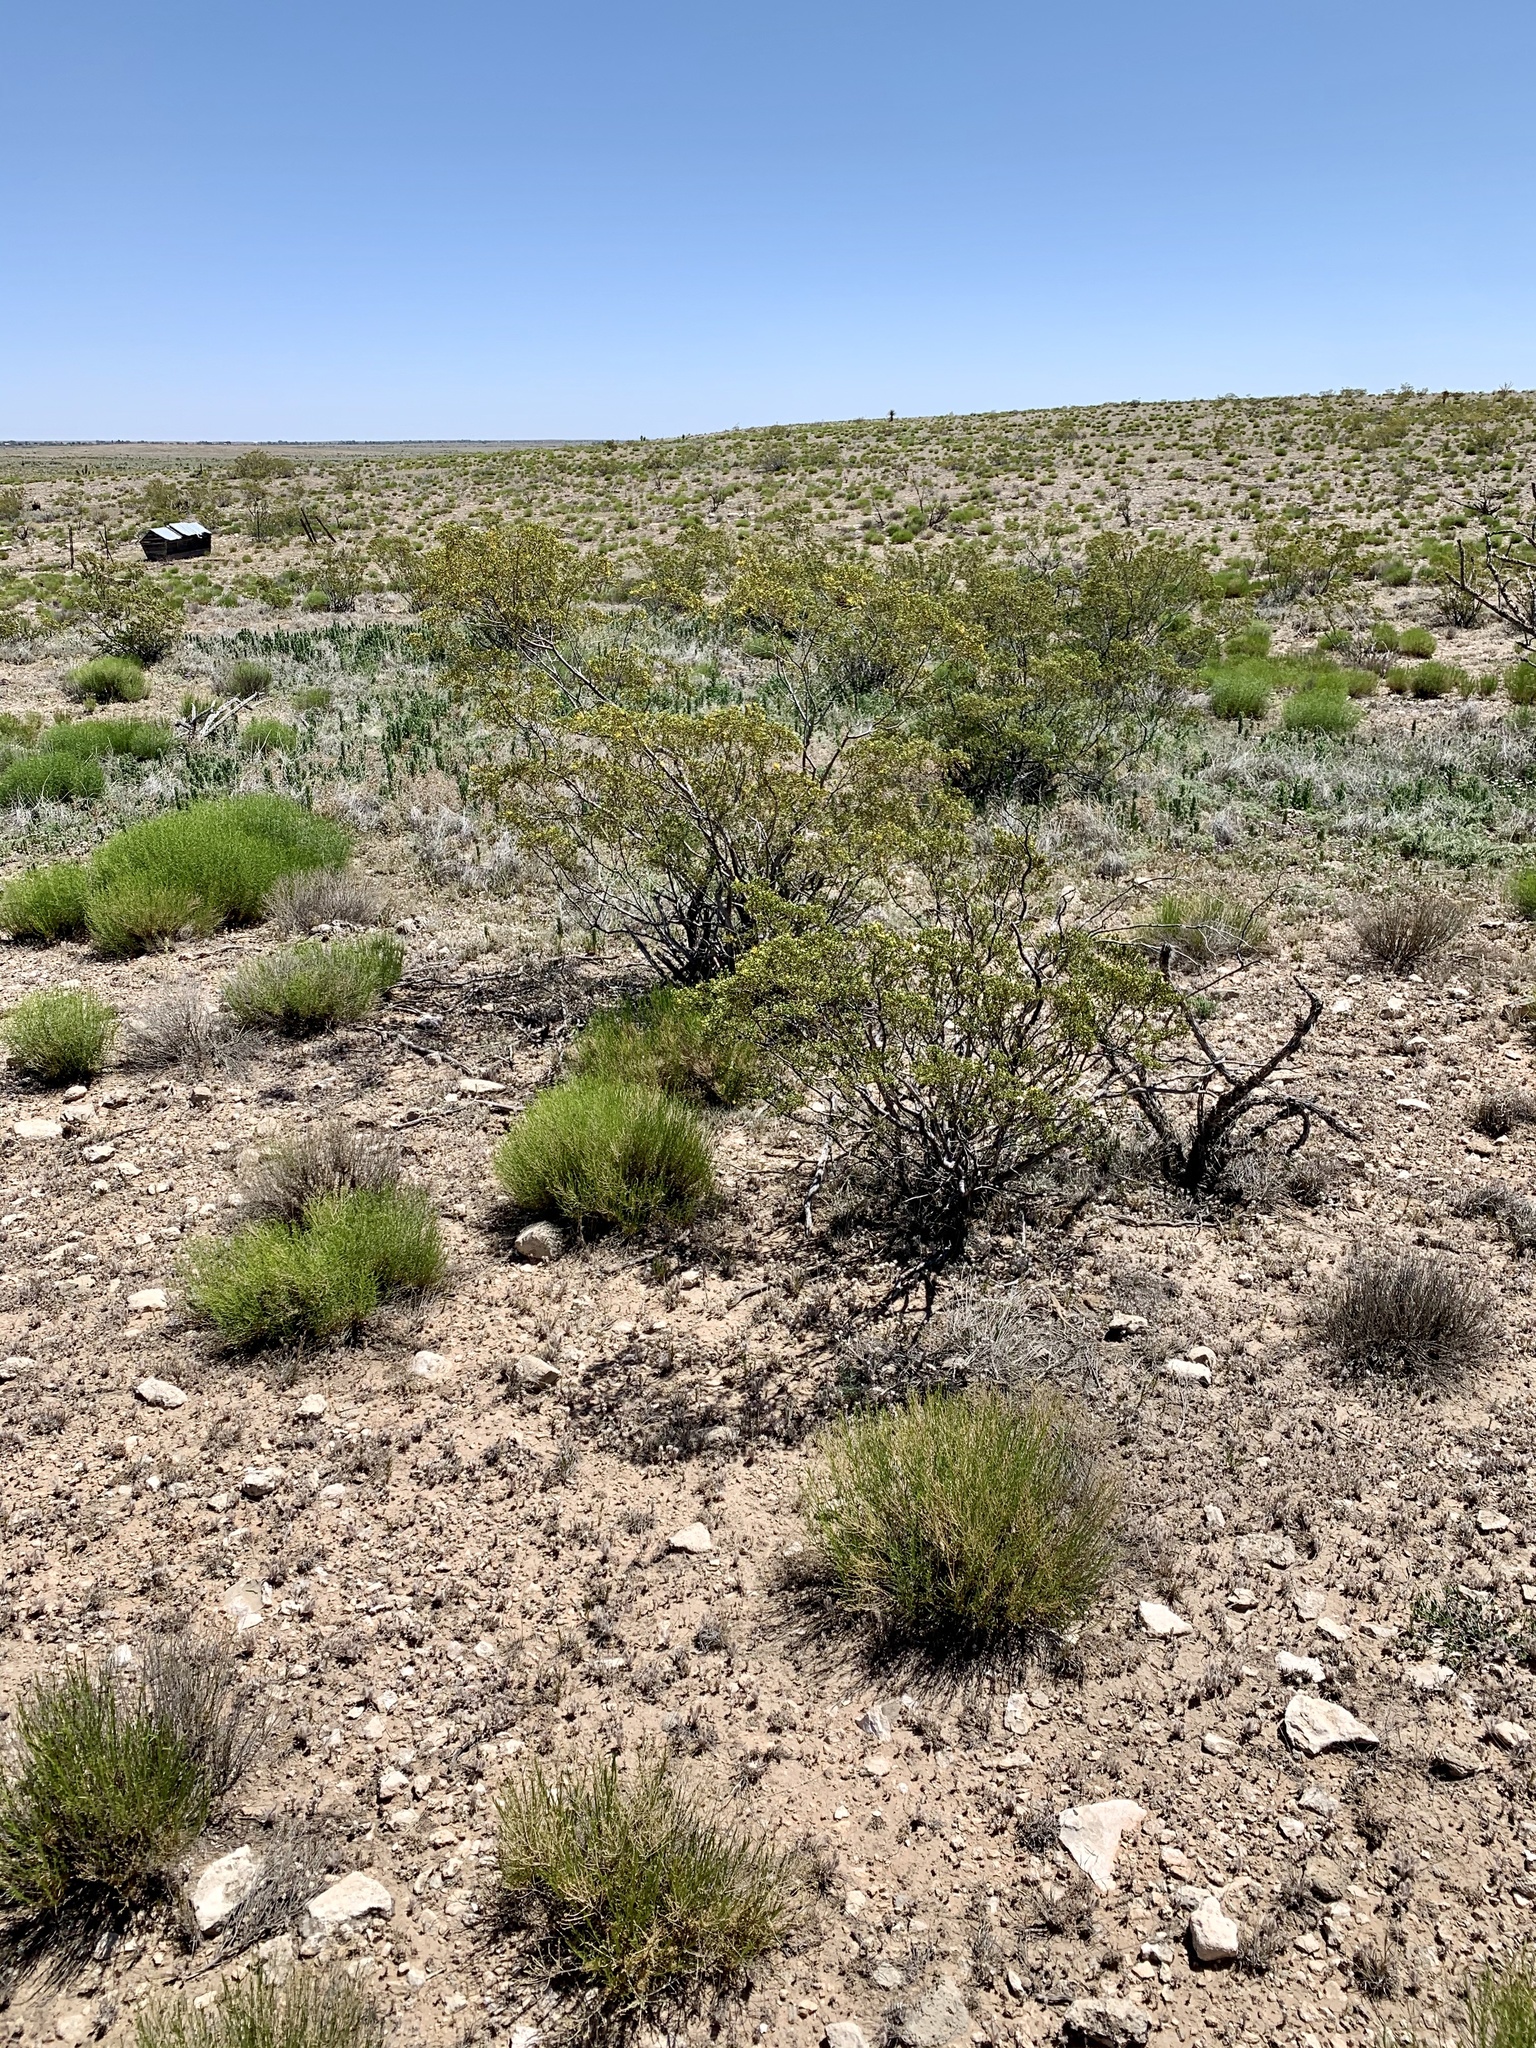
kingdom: Plantae
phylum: Tracheophyta
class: Magnoliopsida
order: Zygophyllales
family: Zygophyllaceae
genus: Larrea
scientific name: Larrea tridentata
